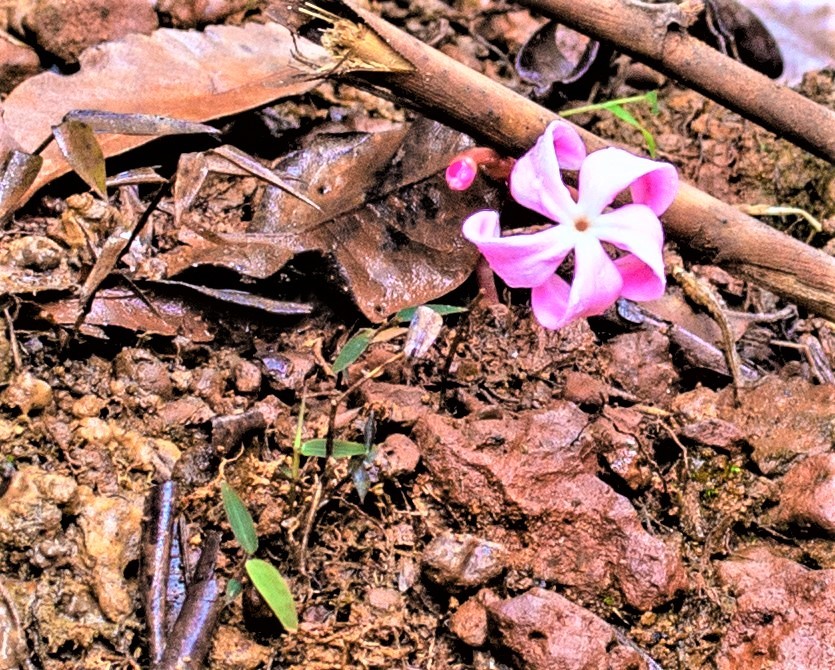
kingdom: Plantae
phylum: Tracheophyta
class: Magnoliopsida
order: Gentianales
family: Gentianaceae
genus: Voyria
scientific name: Voyria rosea
